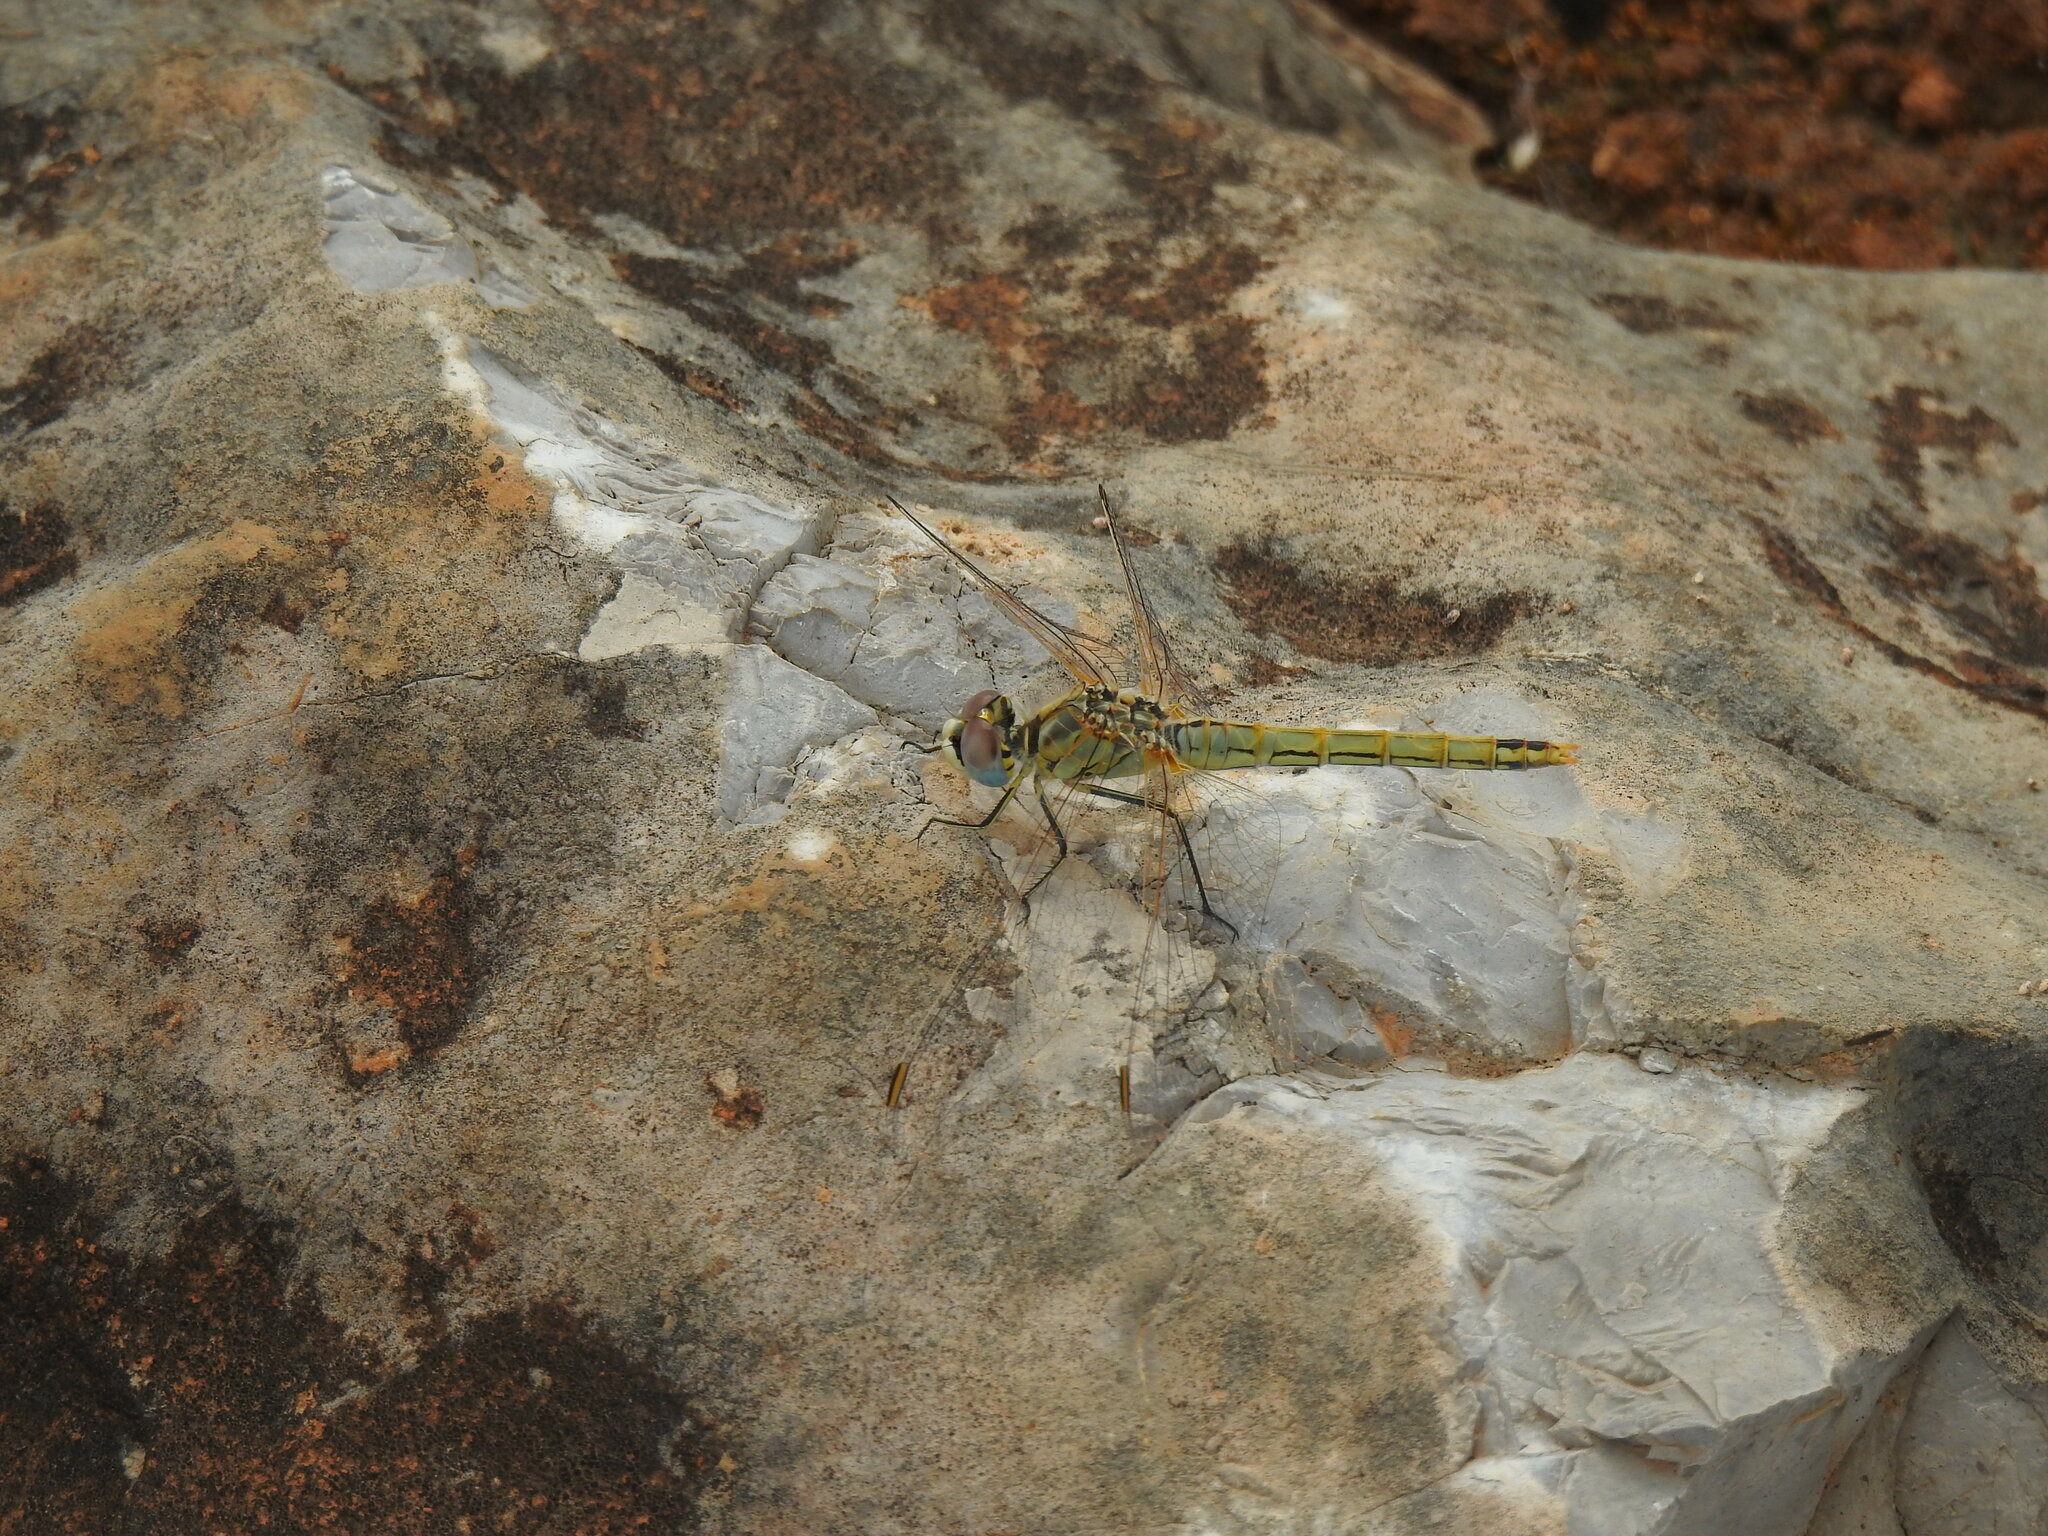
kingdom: Animalia
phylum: Arthropoda
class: Insecta
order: Odonata
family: Libellulidae
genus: Sympetrum
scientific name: Sympetrum fonscolombii
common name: Red-veined darter
